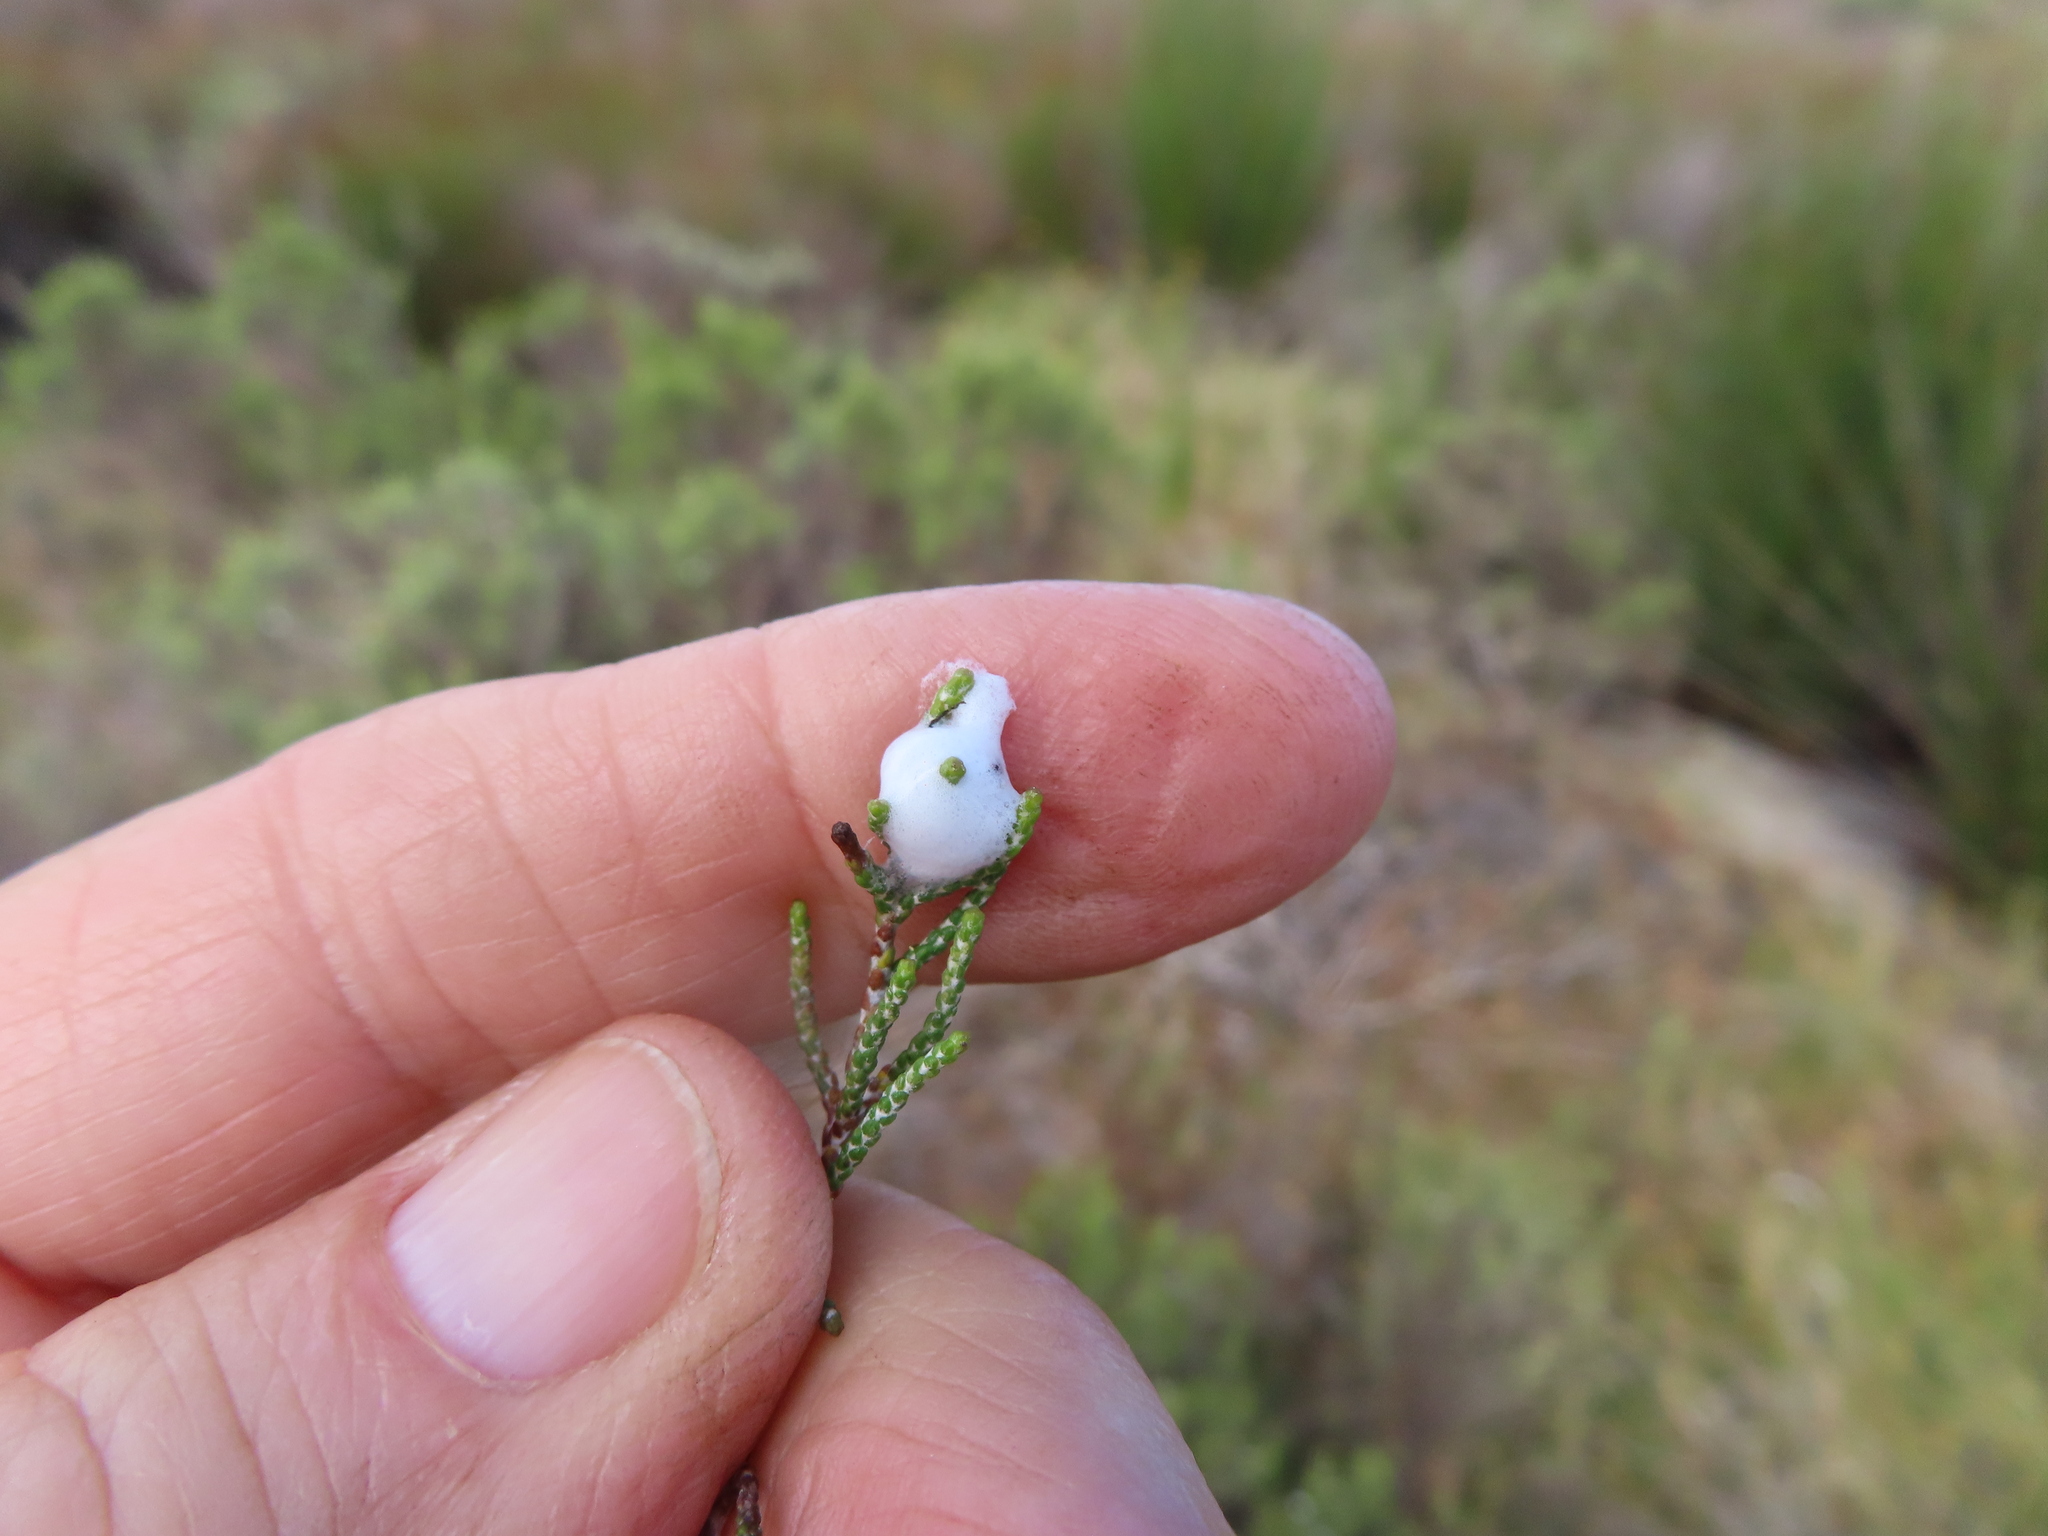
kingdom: Animalia
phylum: Arthropoda
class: Insecta
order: Hemiptera
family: Aphrophoridae
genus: Tremapterus
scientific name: Tremapterus
